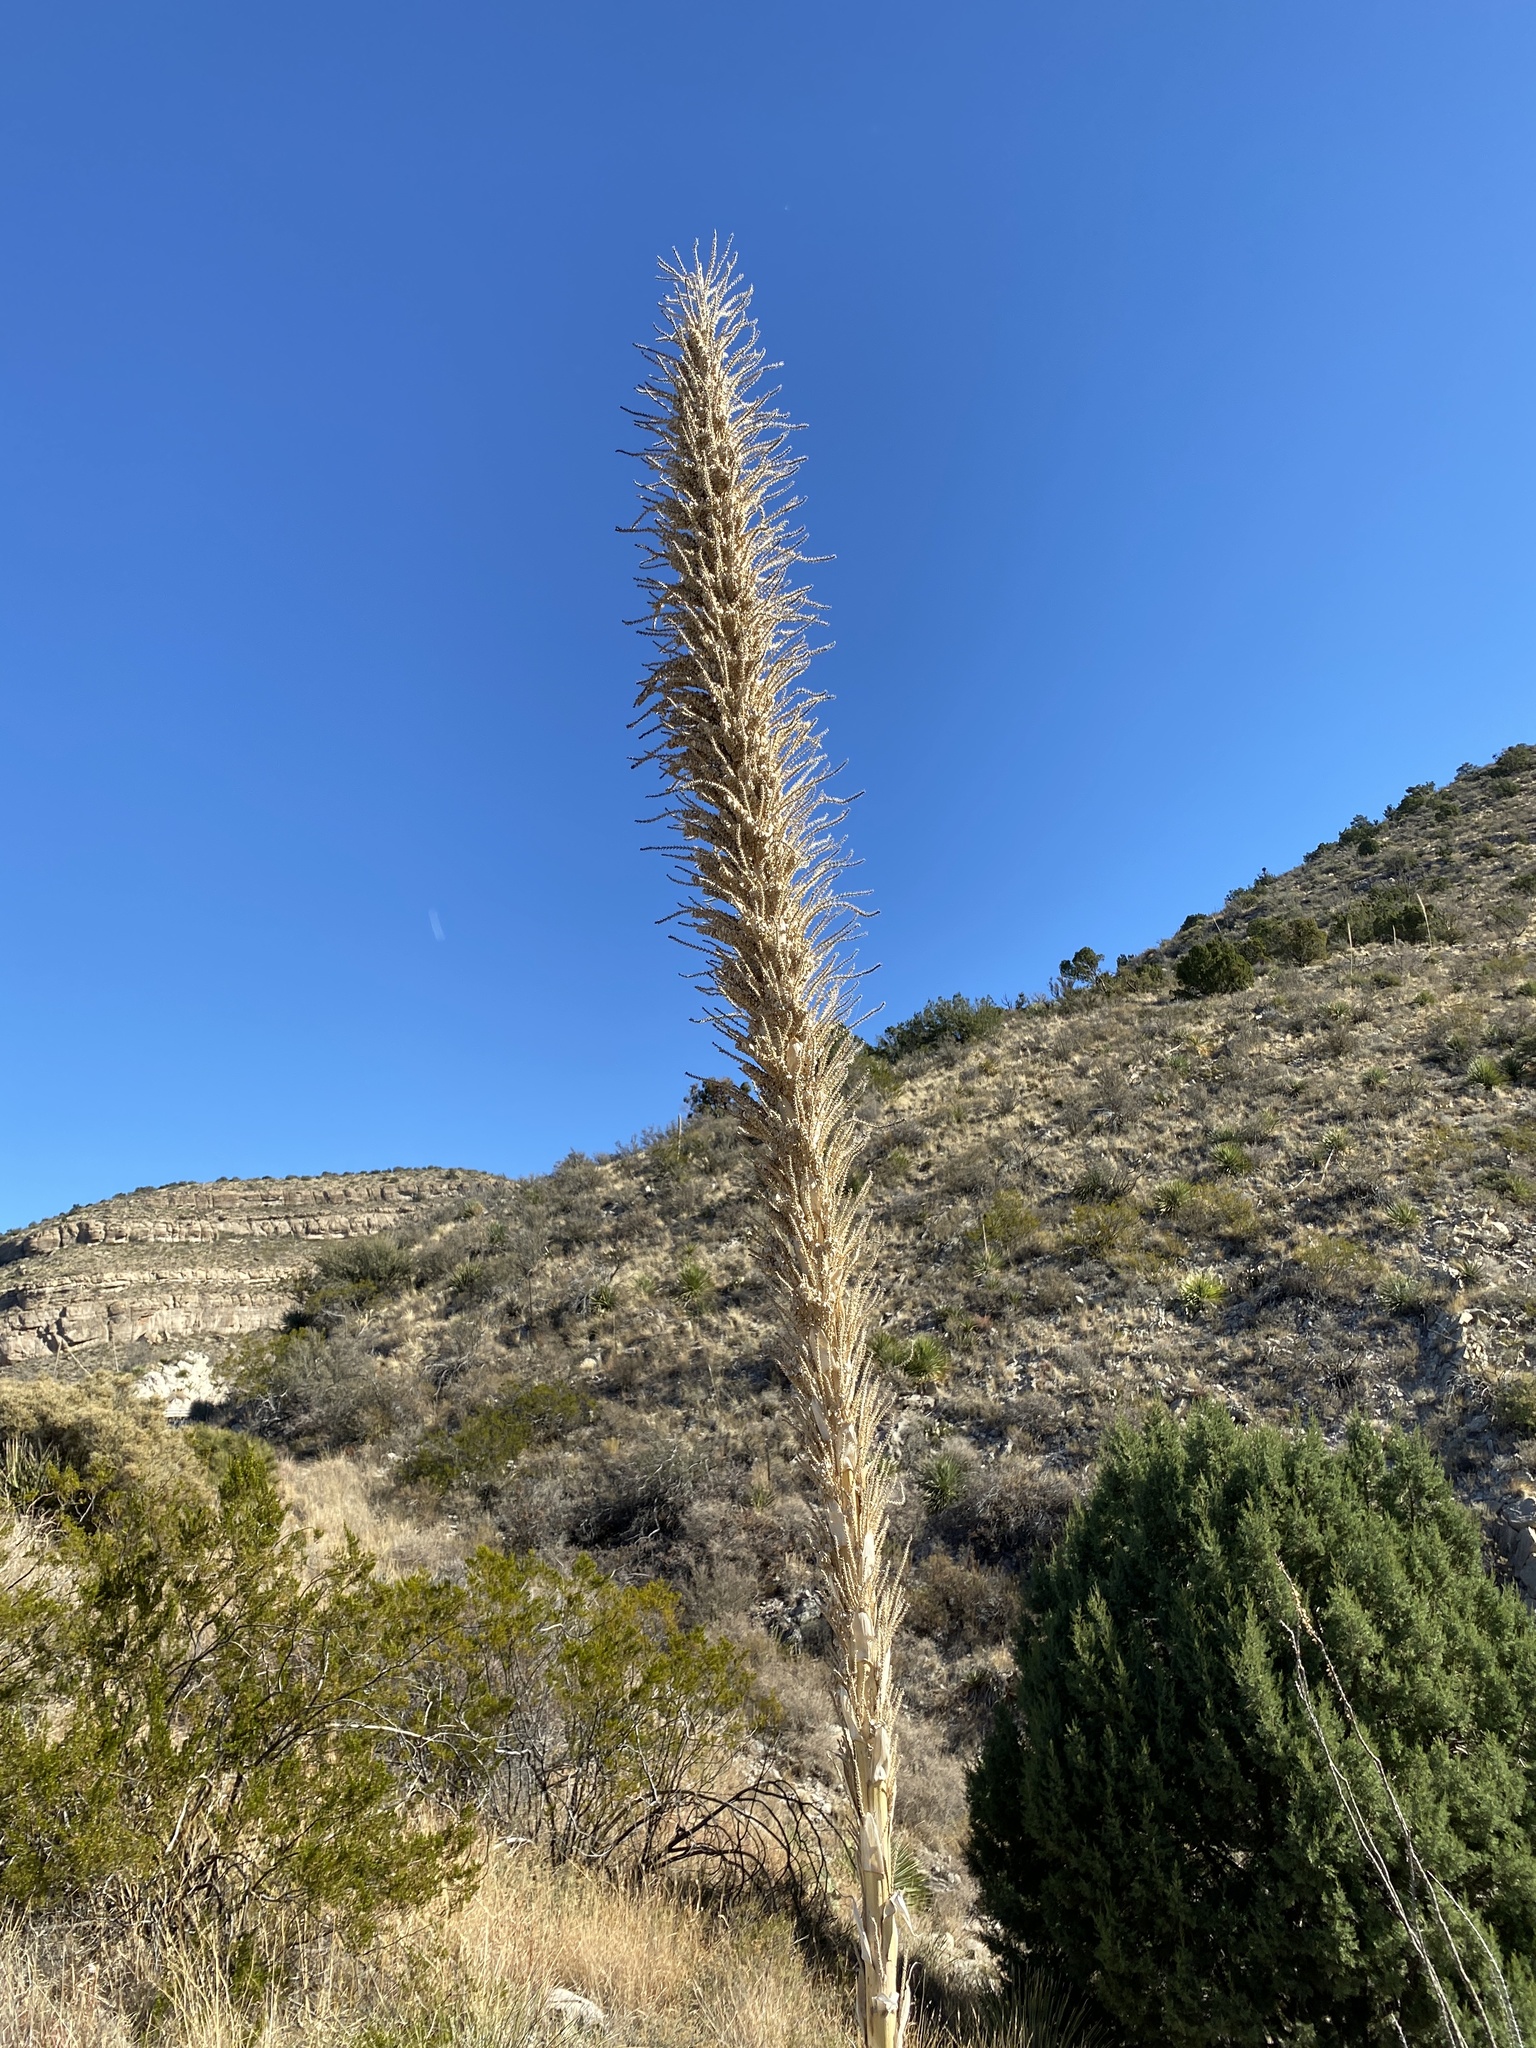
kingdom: Plantae
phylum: Tracheophyta
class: Liliopsida
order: Asparagales
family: Asparagaceae
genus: Dasylirion
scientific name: Dasylirion wheeleri
